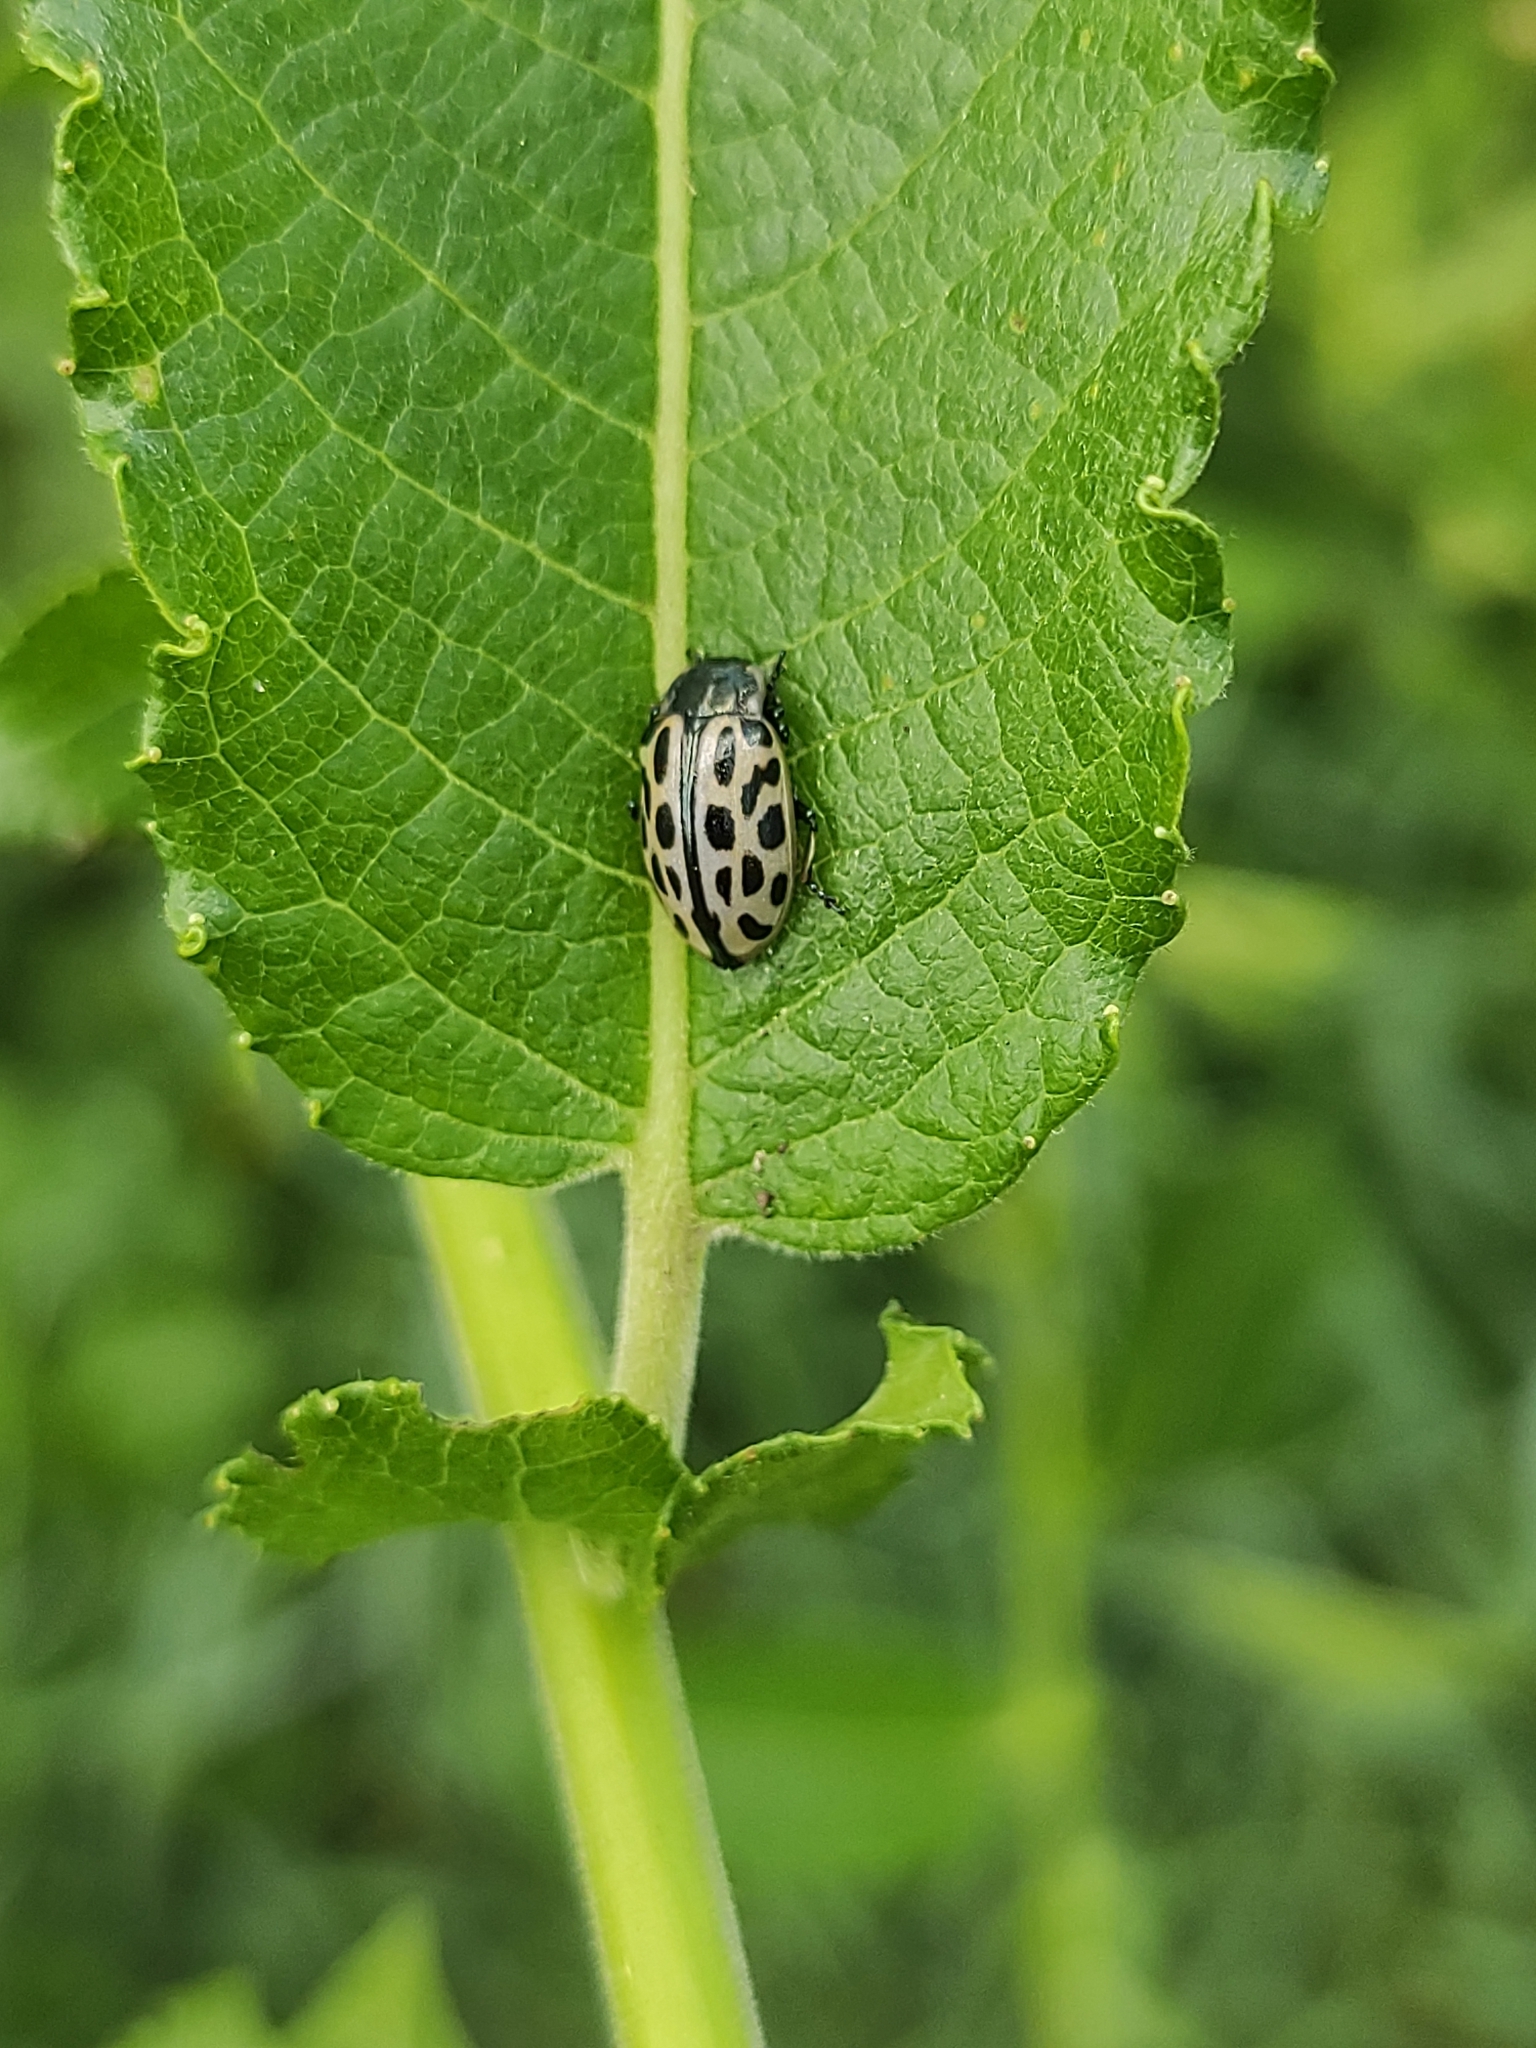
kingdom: Animalia
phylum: Arthropoda
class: Insecta
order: Coleoptera
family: Chrysomelidae
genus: Chrysomela
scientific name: Chrysomela vigintipunctata
